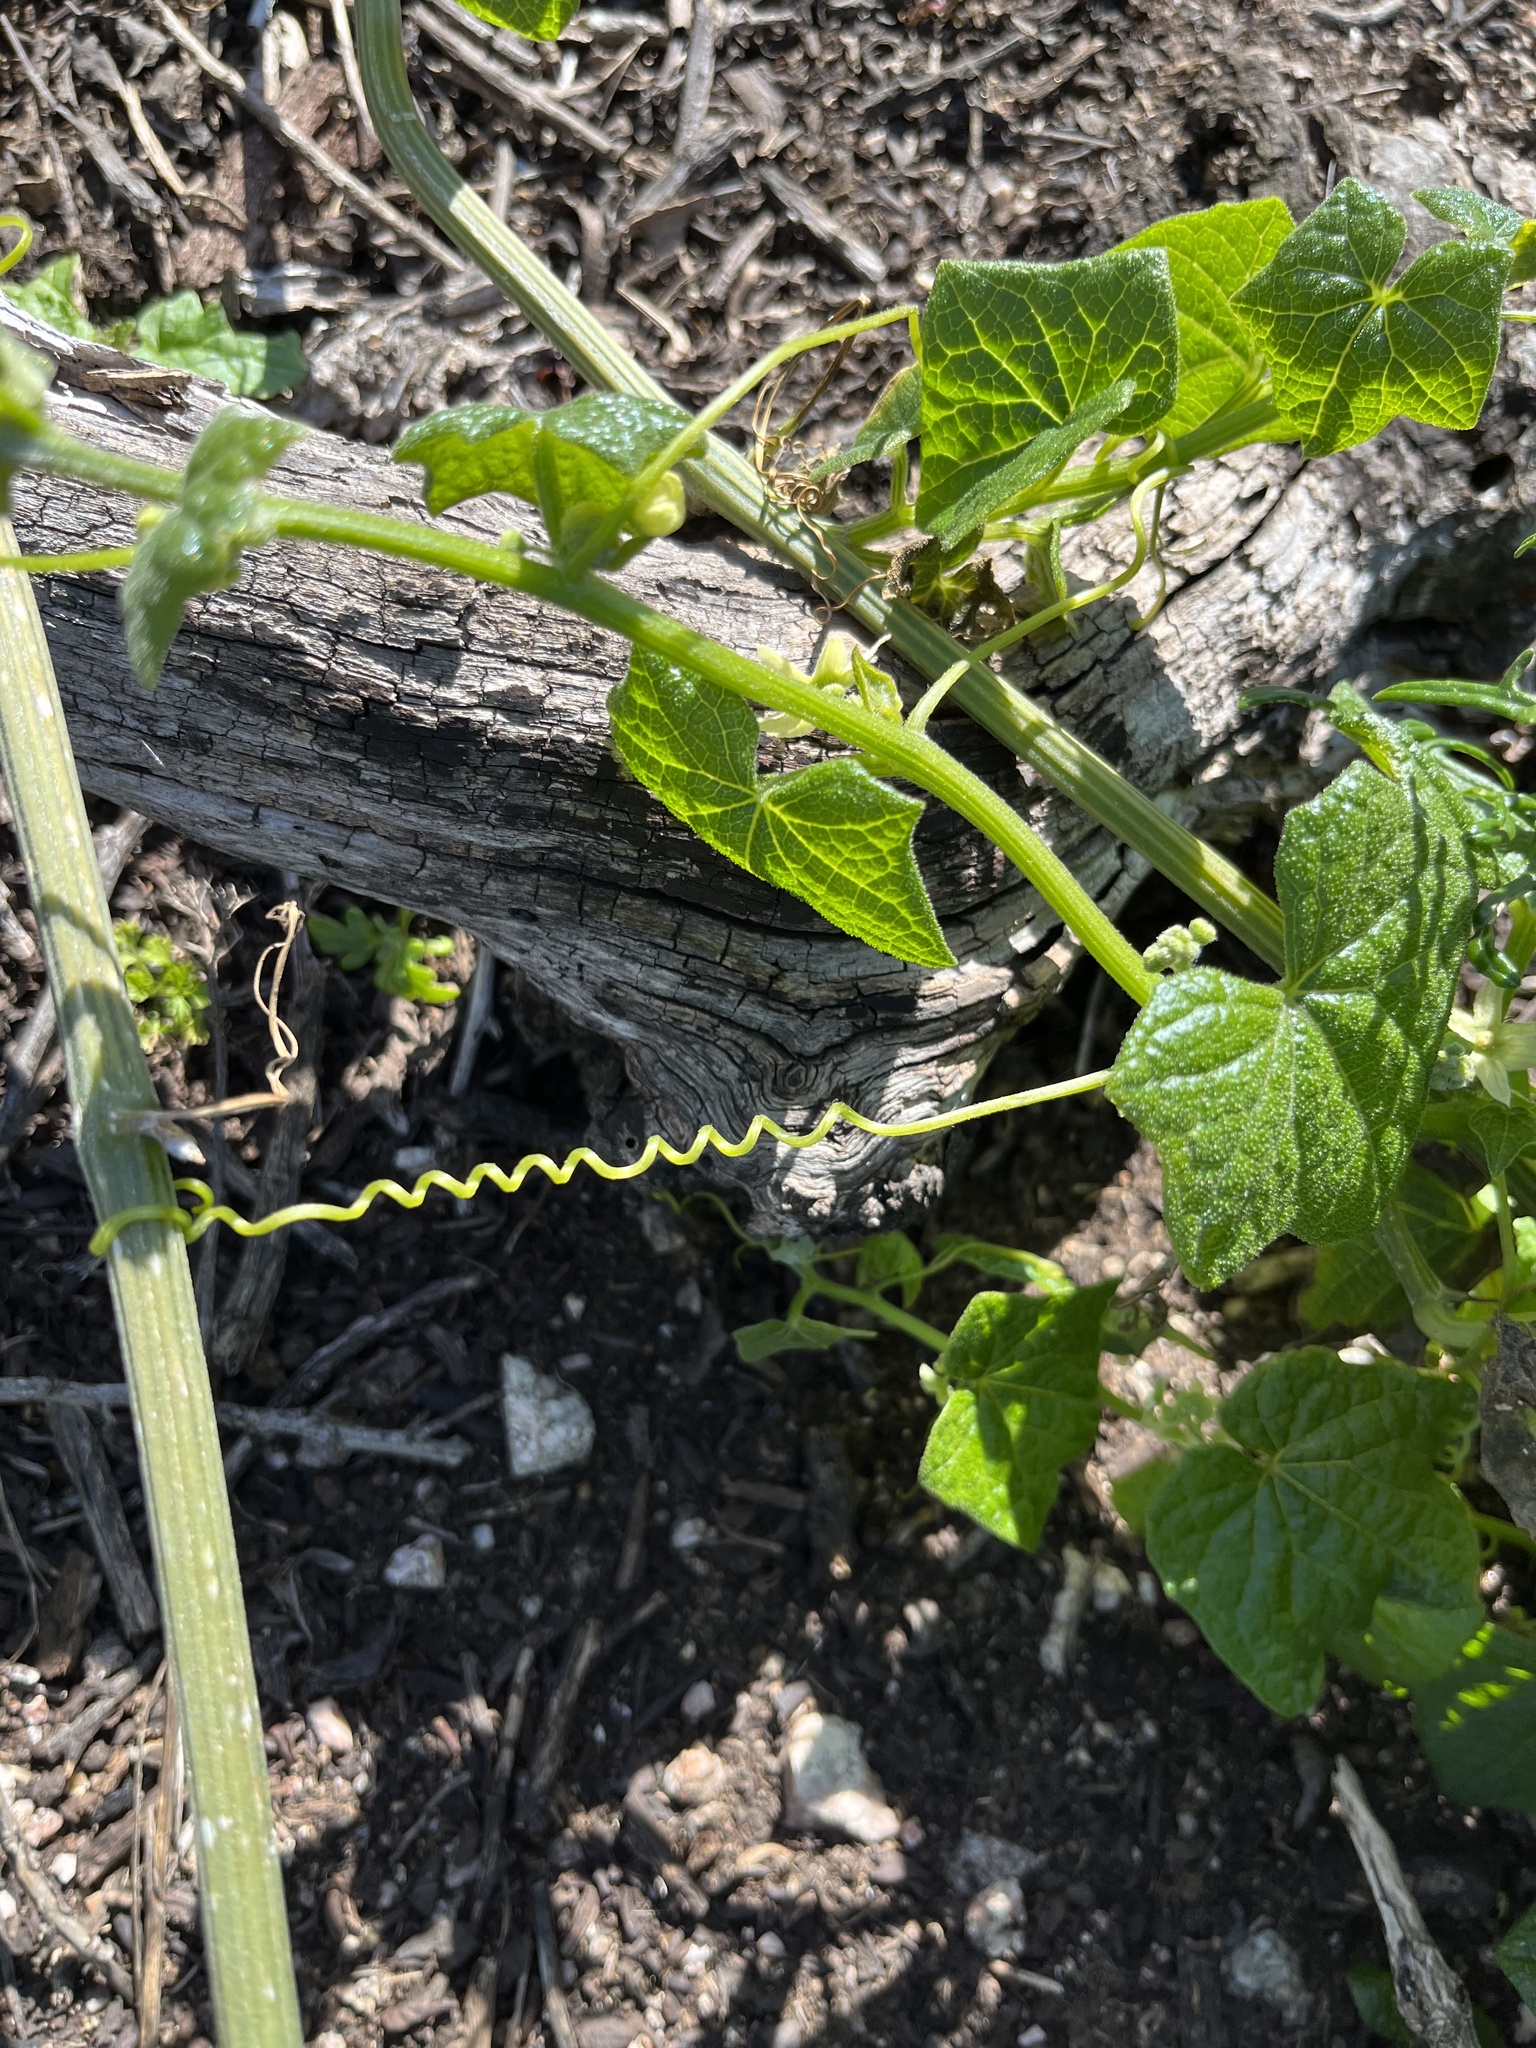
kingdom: Plantae
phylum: Tracheophyta
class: Magnoliopsida
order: Cucurbitales
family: Cucurbitaceae
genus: Marah
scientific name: Marah fabacea
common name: California manroot
